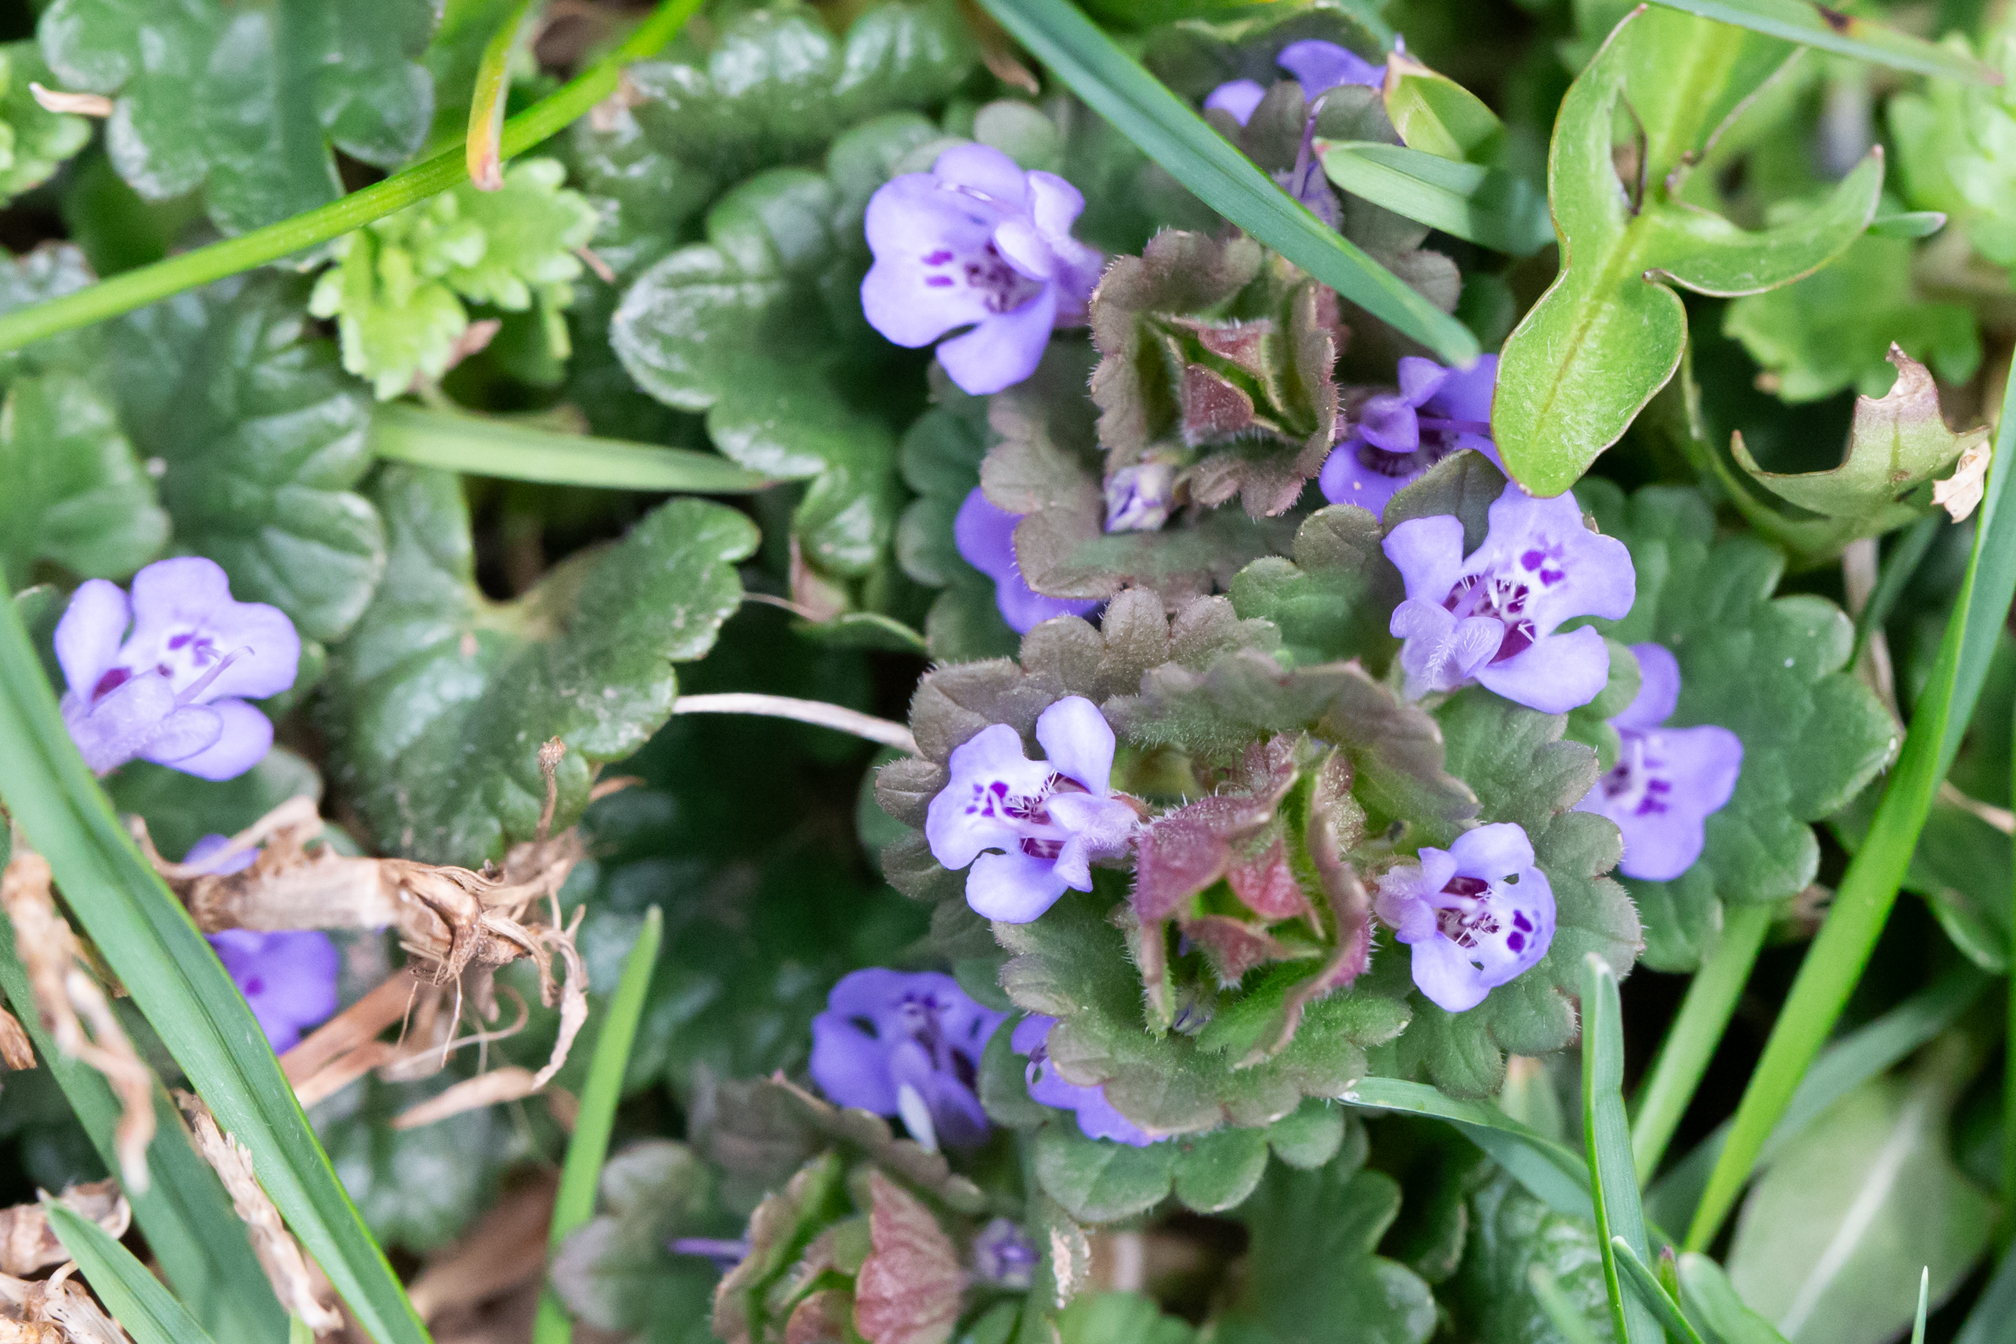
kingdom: Plantae
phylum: Tracheophyta
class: Magnoliopsida
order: Lamiales
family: Lamiaceae
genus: Glechoma
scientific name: Glechoma hederacea
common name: Ground ivy
